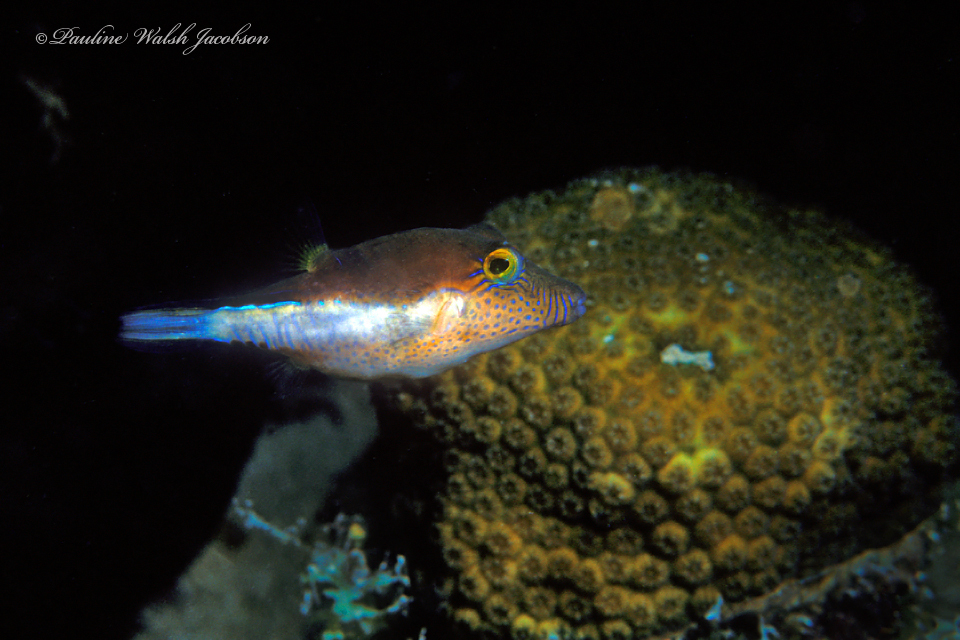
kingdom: Animalia
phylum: Chordata
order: Tetraodontiformes
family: Tetraodontidae
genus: Canthigaster
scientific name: Canthigaster rostrata
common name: Caribbean sharpnose-puffer
